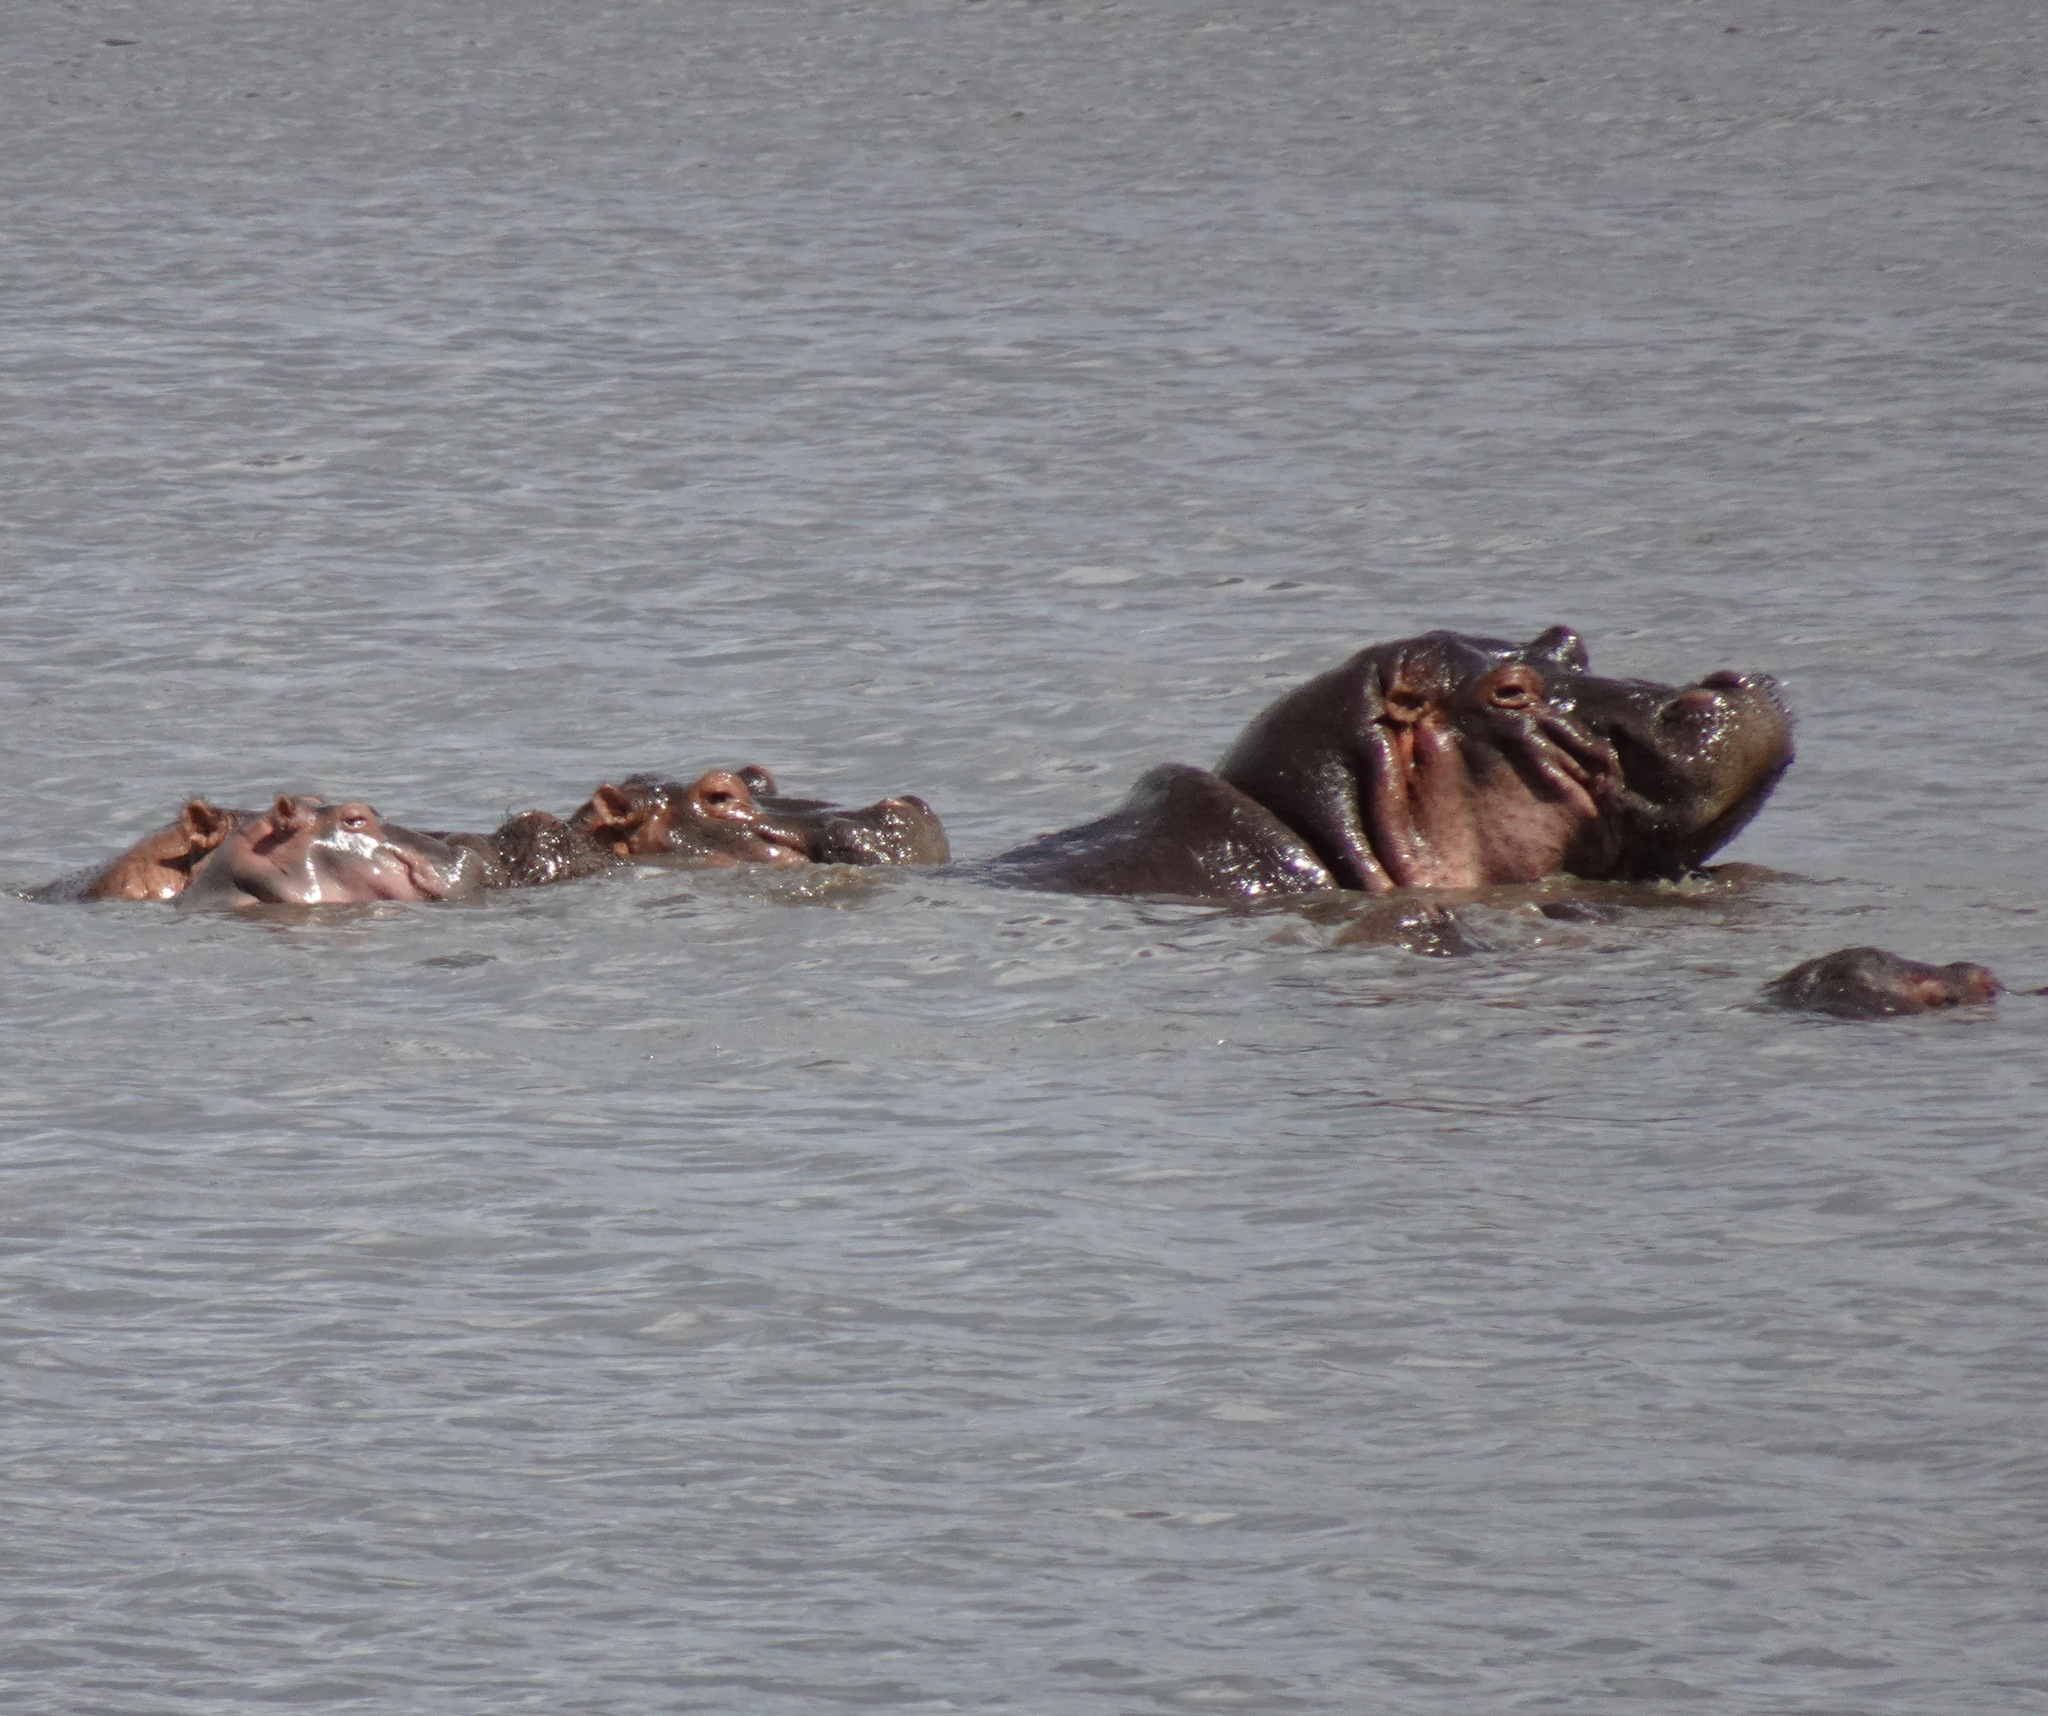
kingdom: Animalia
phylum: Chordata
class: Mammalia
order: Artiodactyla
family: Hippopotamidae
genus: Hippopotamus
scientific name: Hippopotamus amphibius
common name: Common hippopotamus
